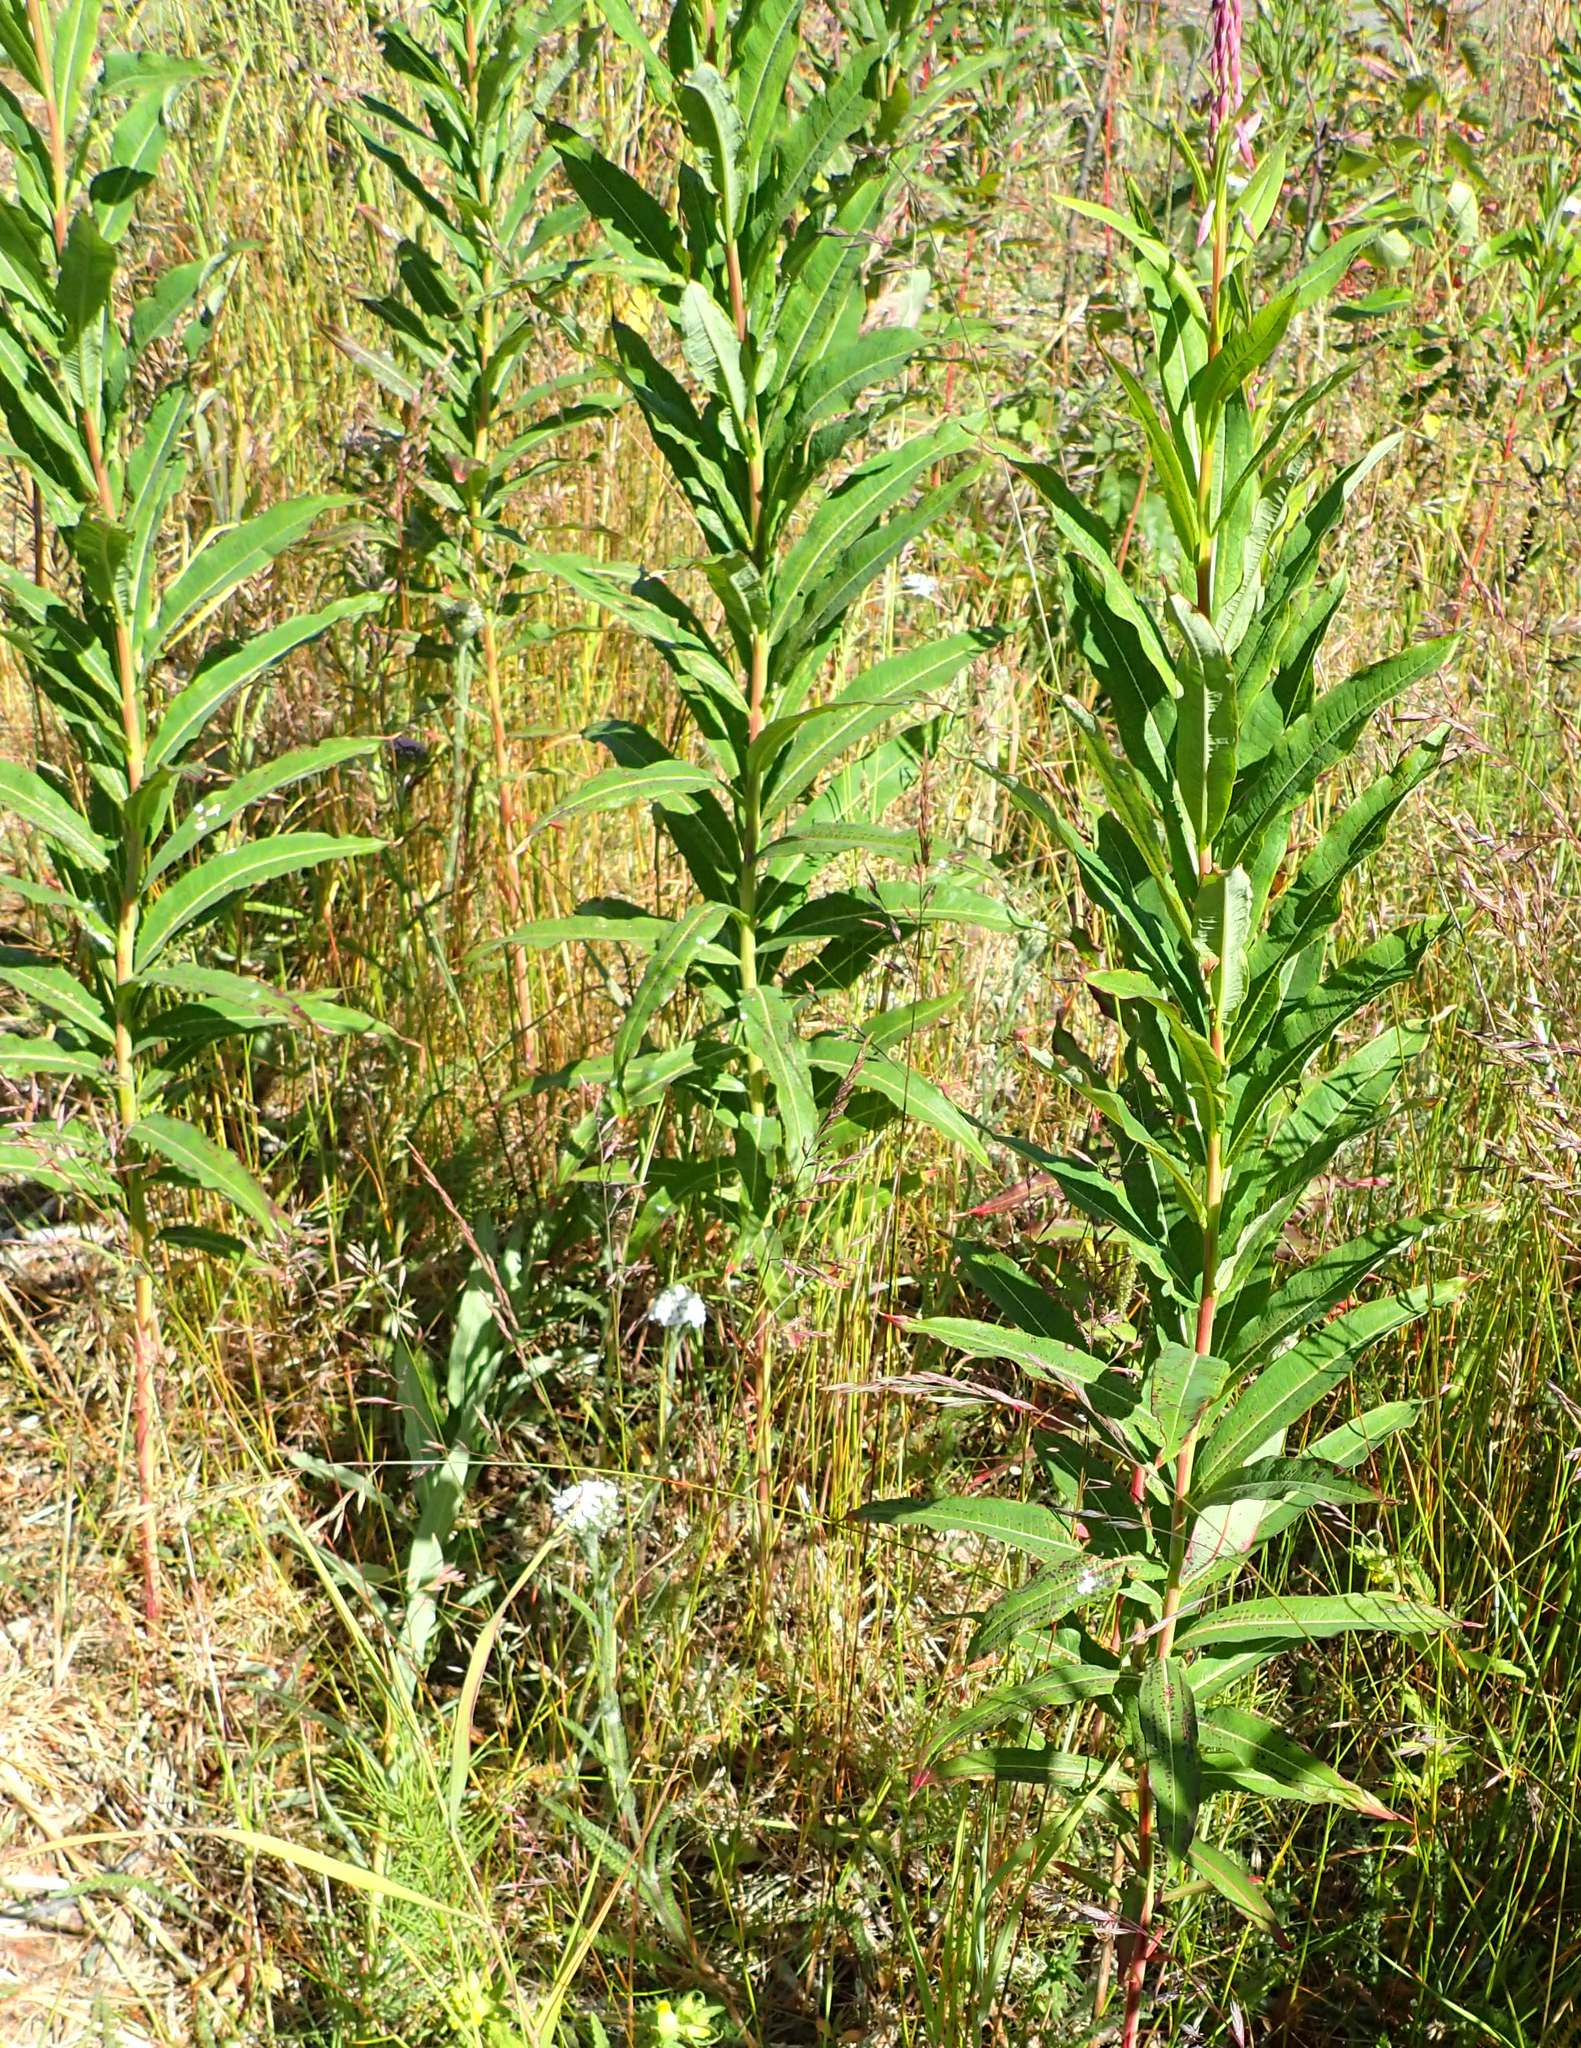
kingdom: Plantae
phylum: Tracheophyta
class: Magnoliopsida
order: Myrtales
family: Onagraceae
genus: Chamaenerion
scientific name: Chamaenerion angustifolium
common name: Fireweed
